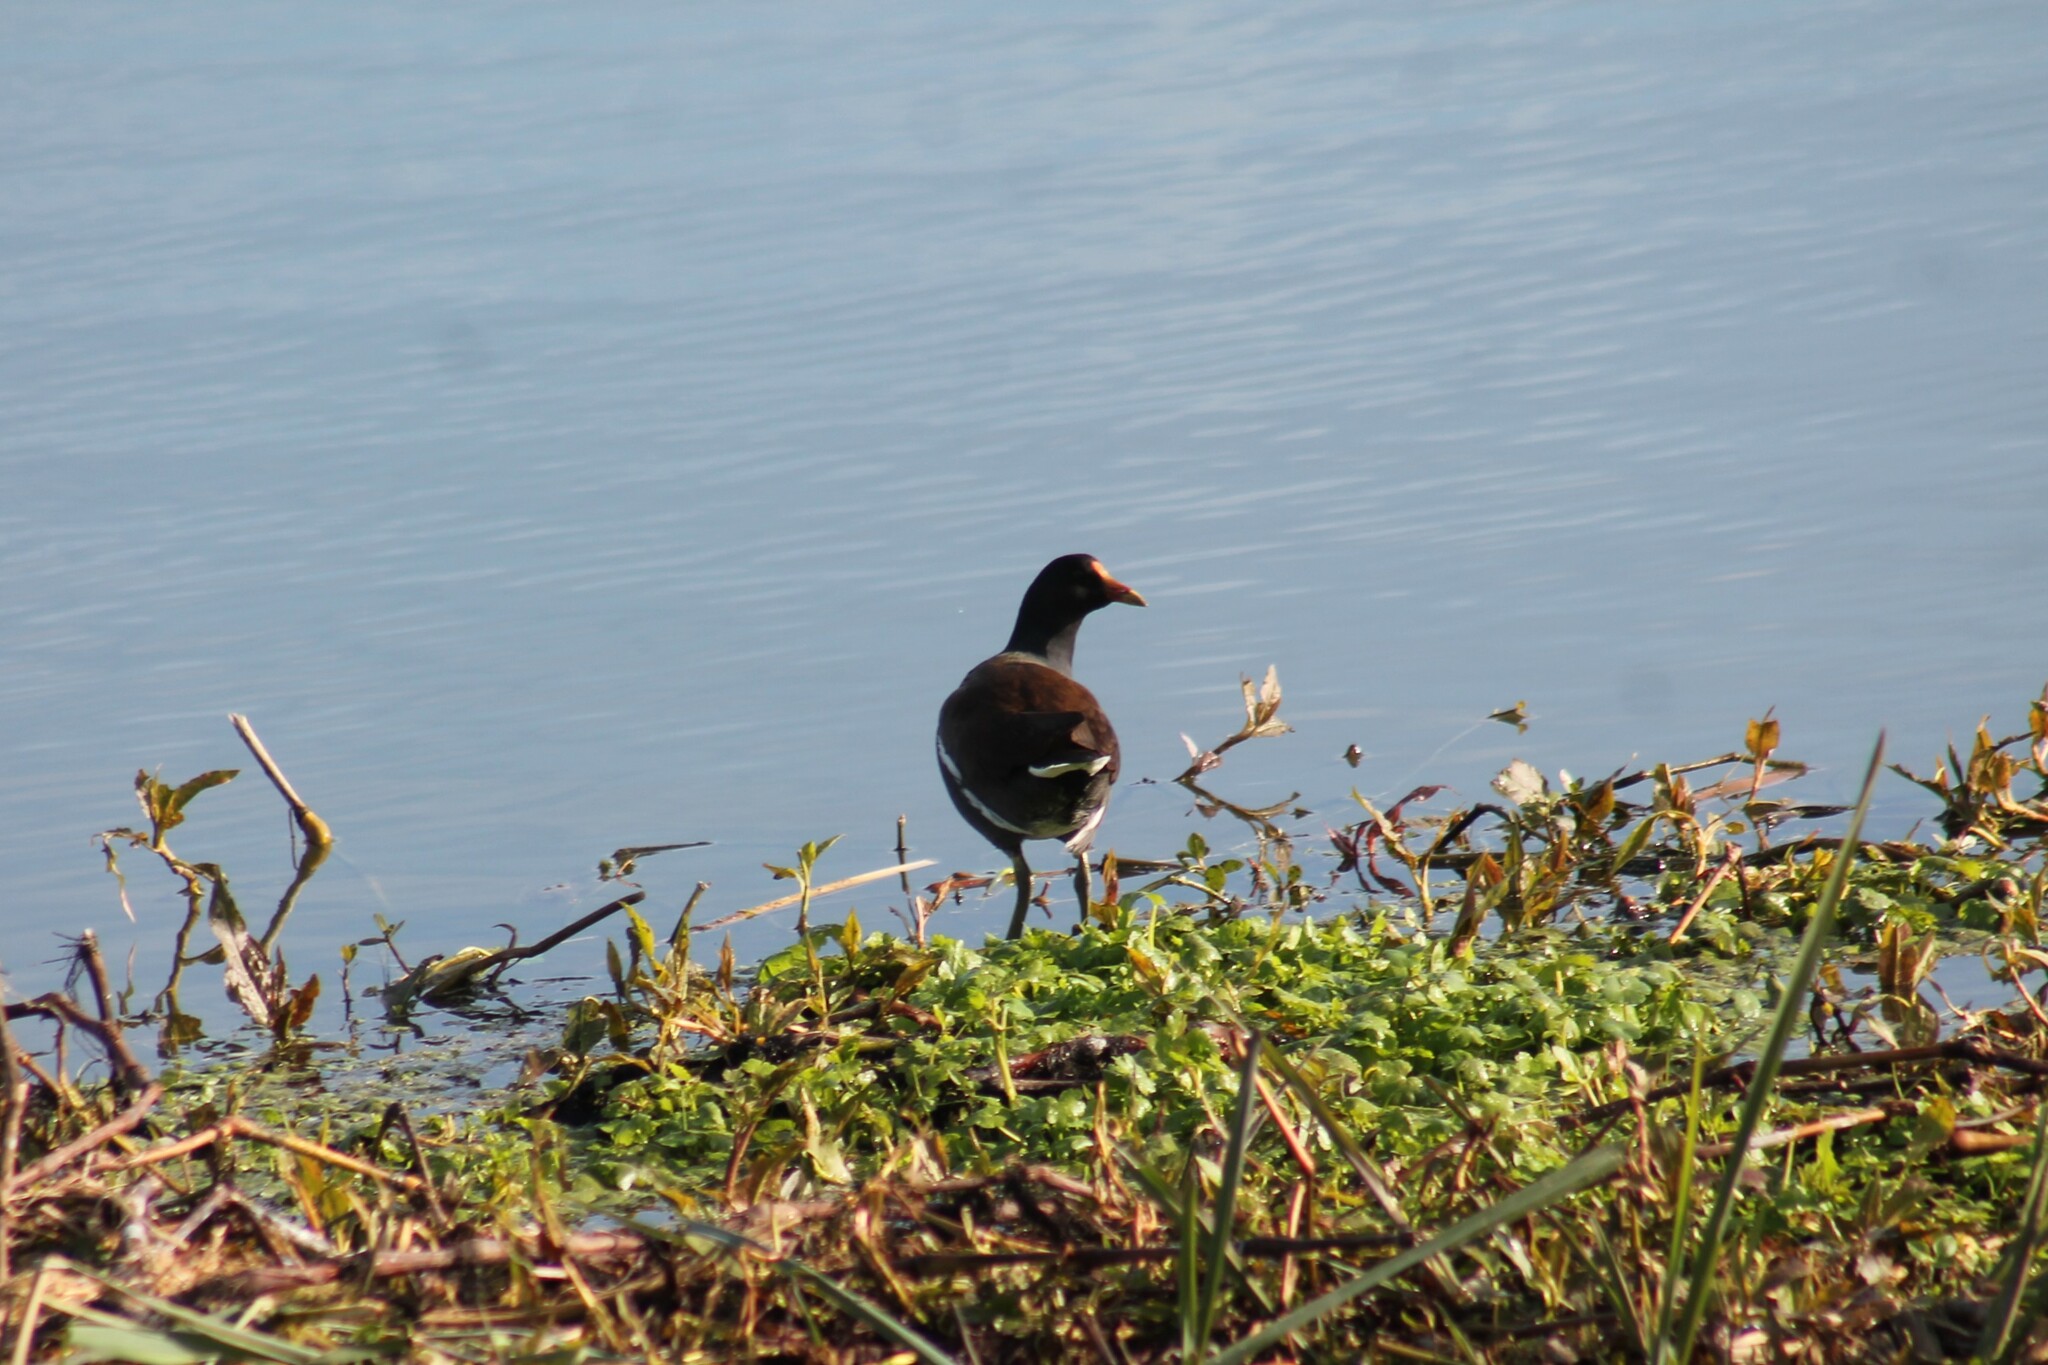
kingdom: Animalia
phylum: Chordata
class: Aves
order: Gruiformes
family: Rallidae
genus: Gallinula
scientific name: Gallinula chloropus
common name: Common moorhen
